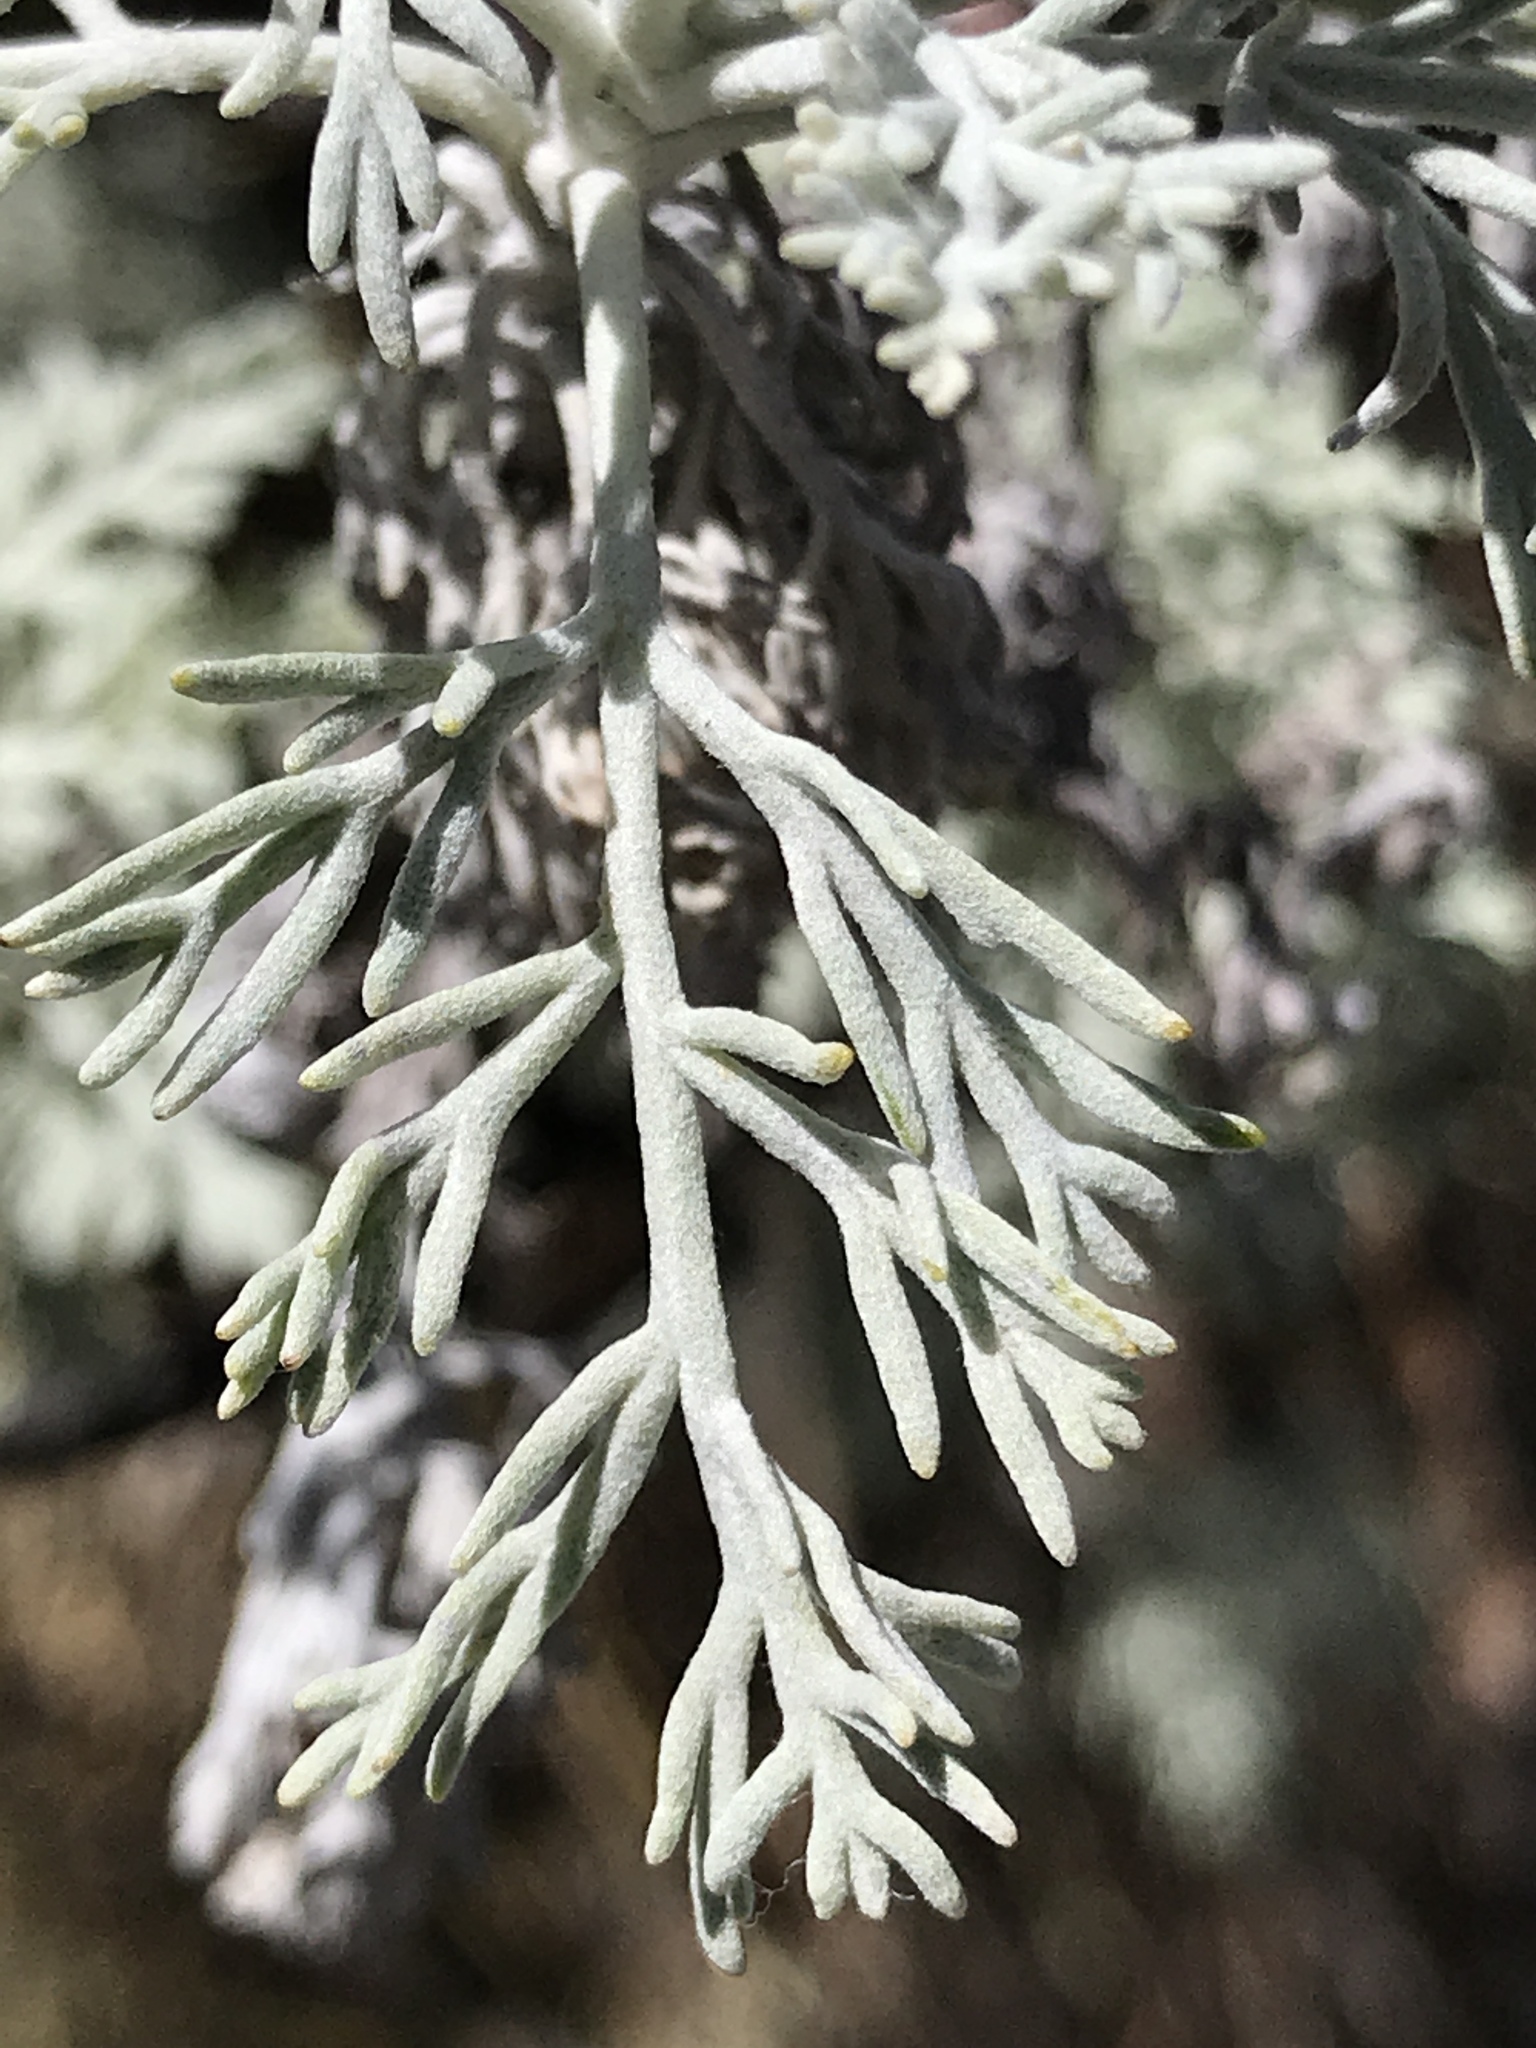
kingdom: Plantae
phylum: Tracheophyta
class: Magnoliopsida
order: Asterales
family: Asteraceae
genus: Artemisia
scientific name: Artemisia mauiensis
